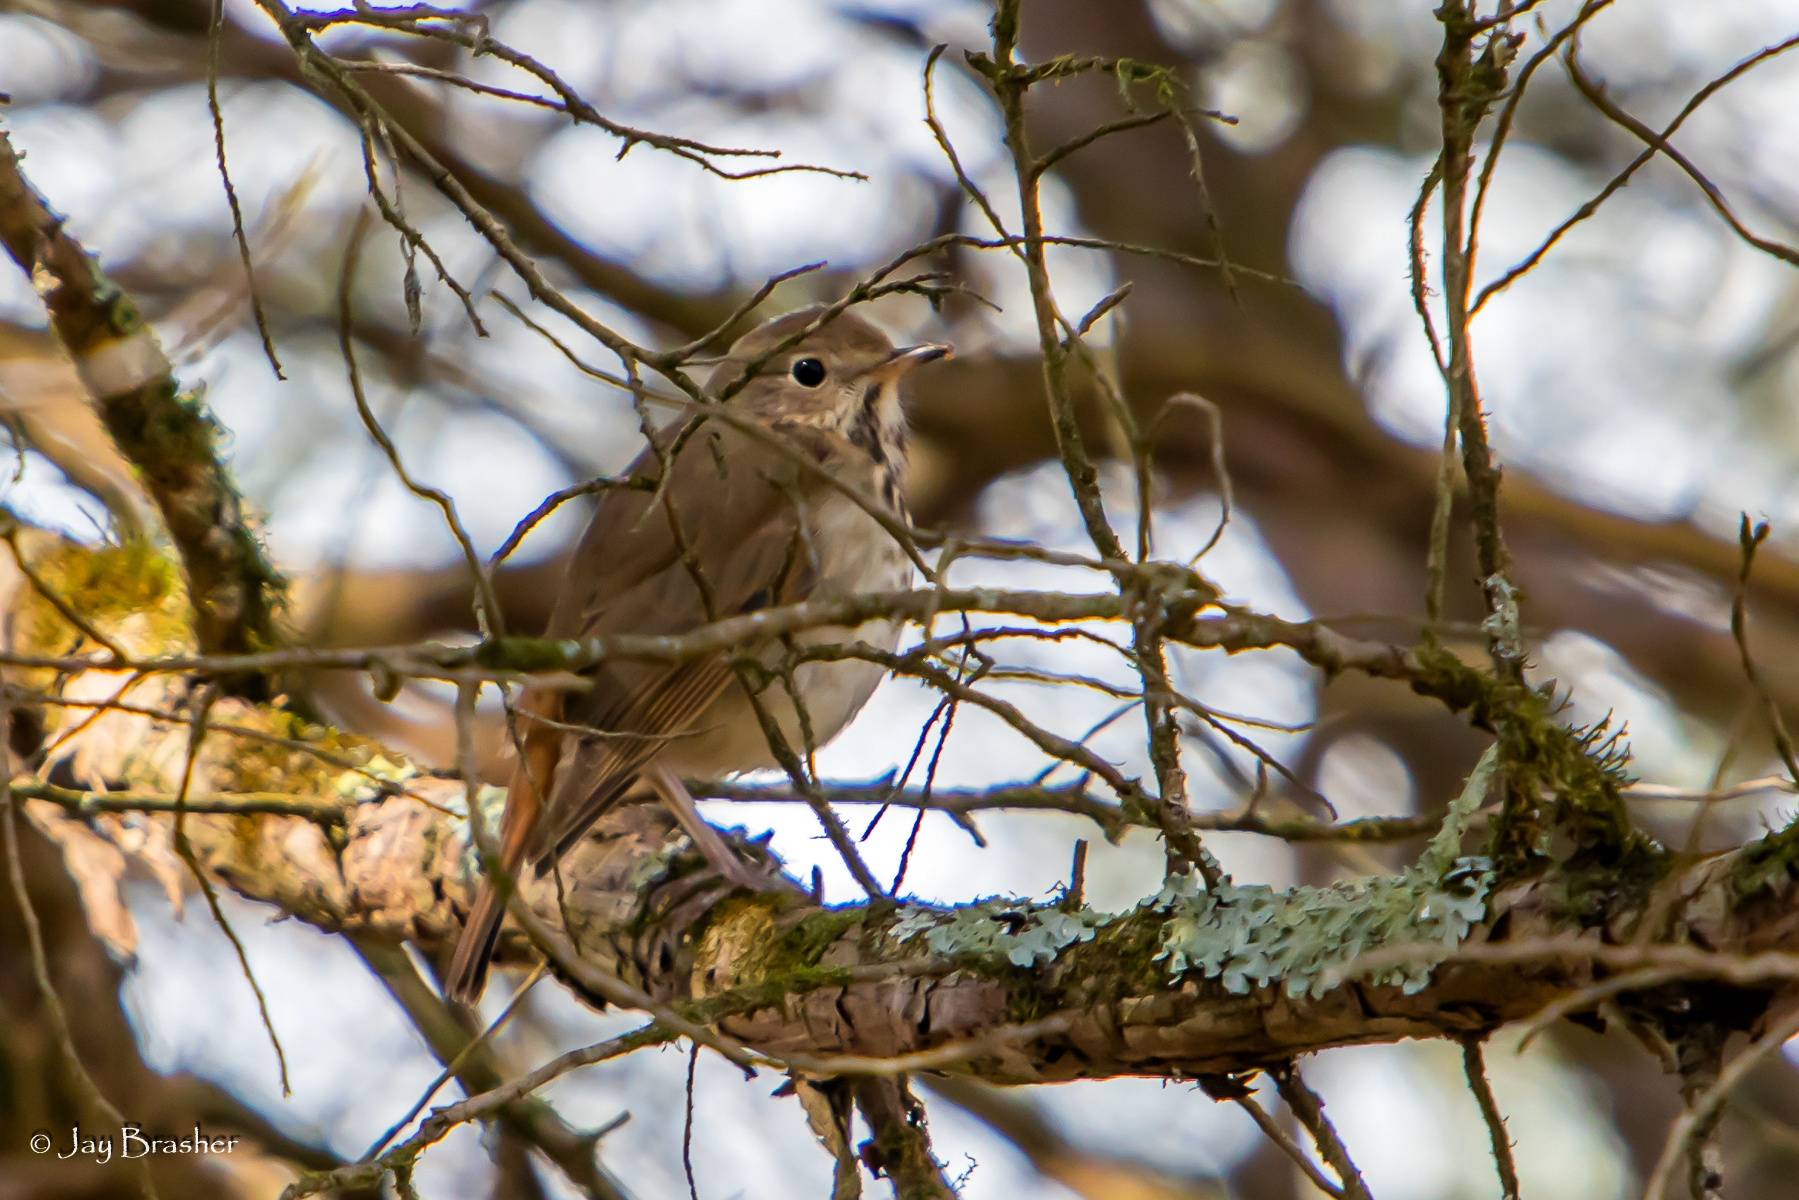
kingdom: Animalia
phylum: Chordata
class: Aves
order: Passeriformes
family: Turdidae
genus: Catharus
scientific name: Catharus guttatus
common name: Hermit thrush
